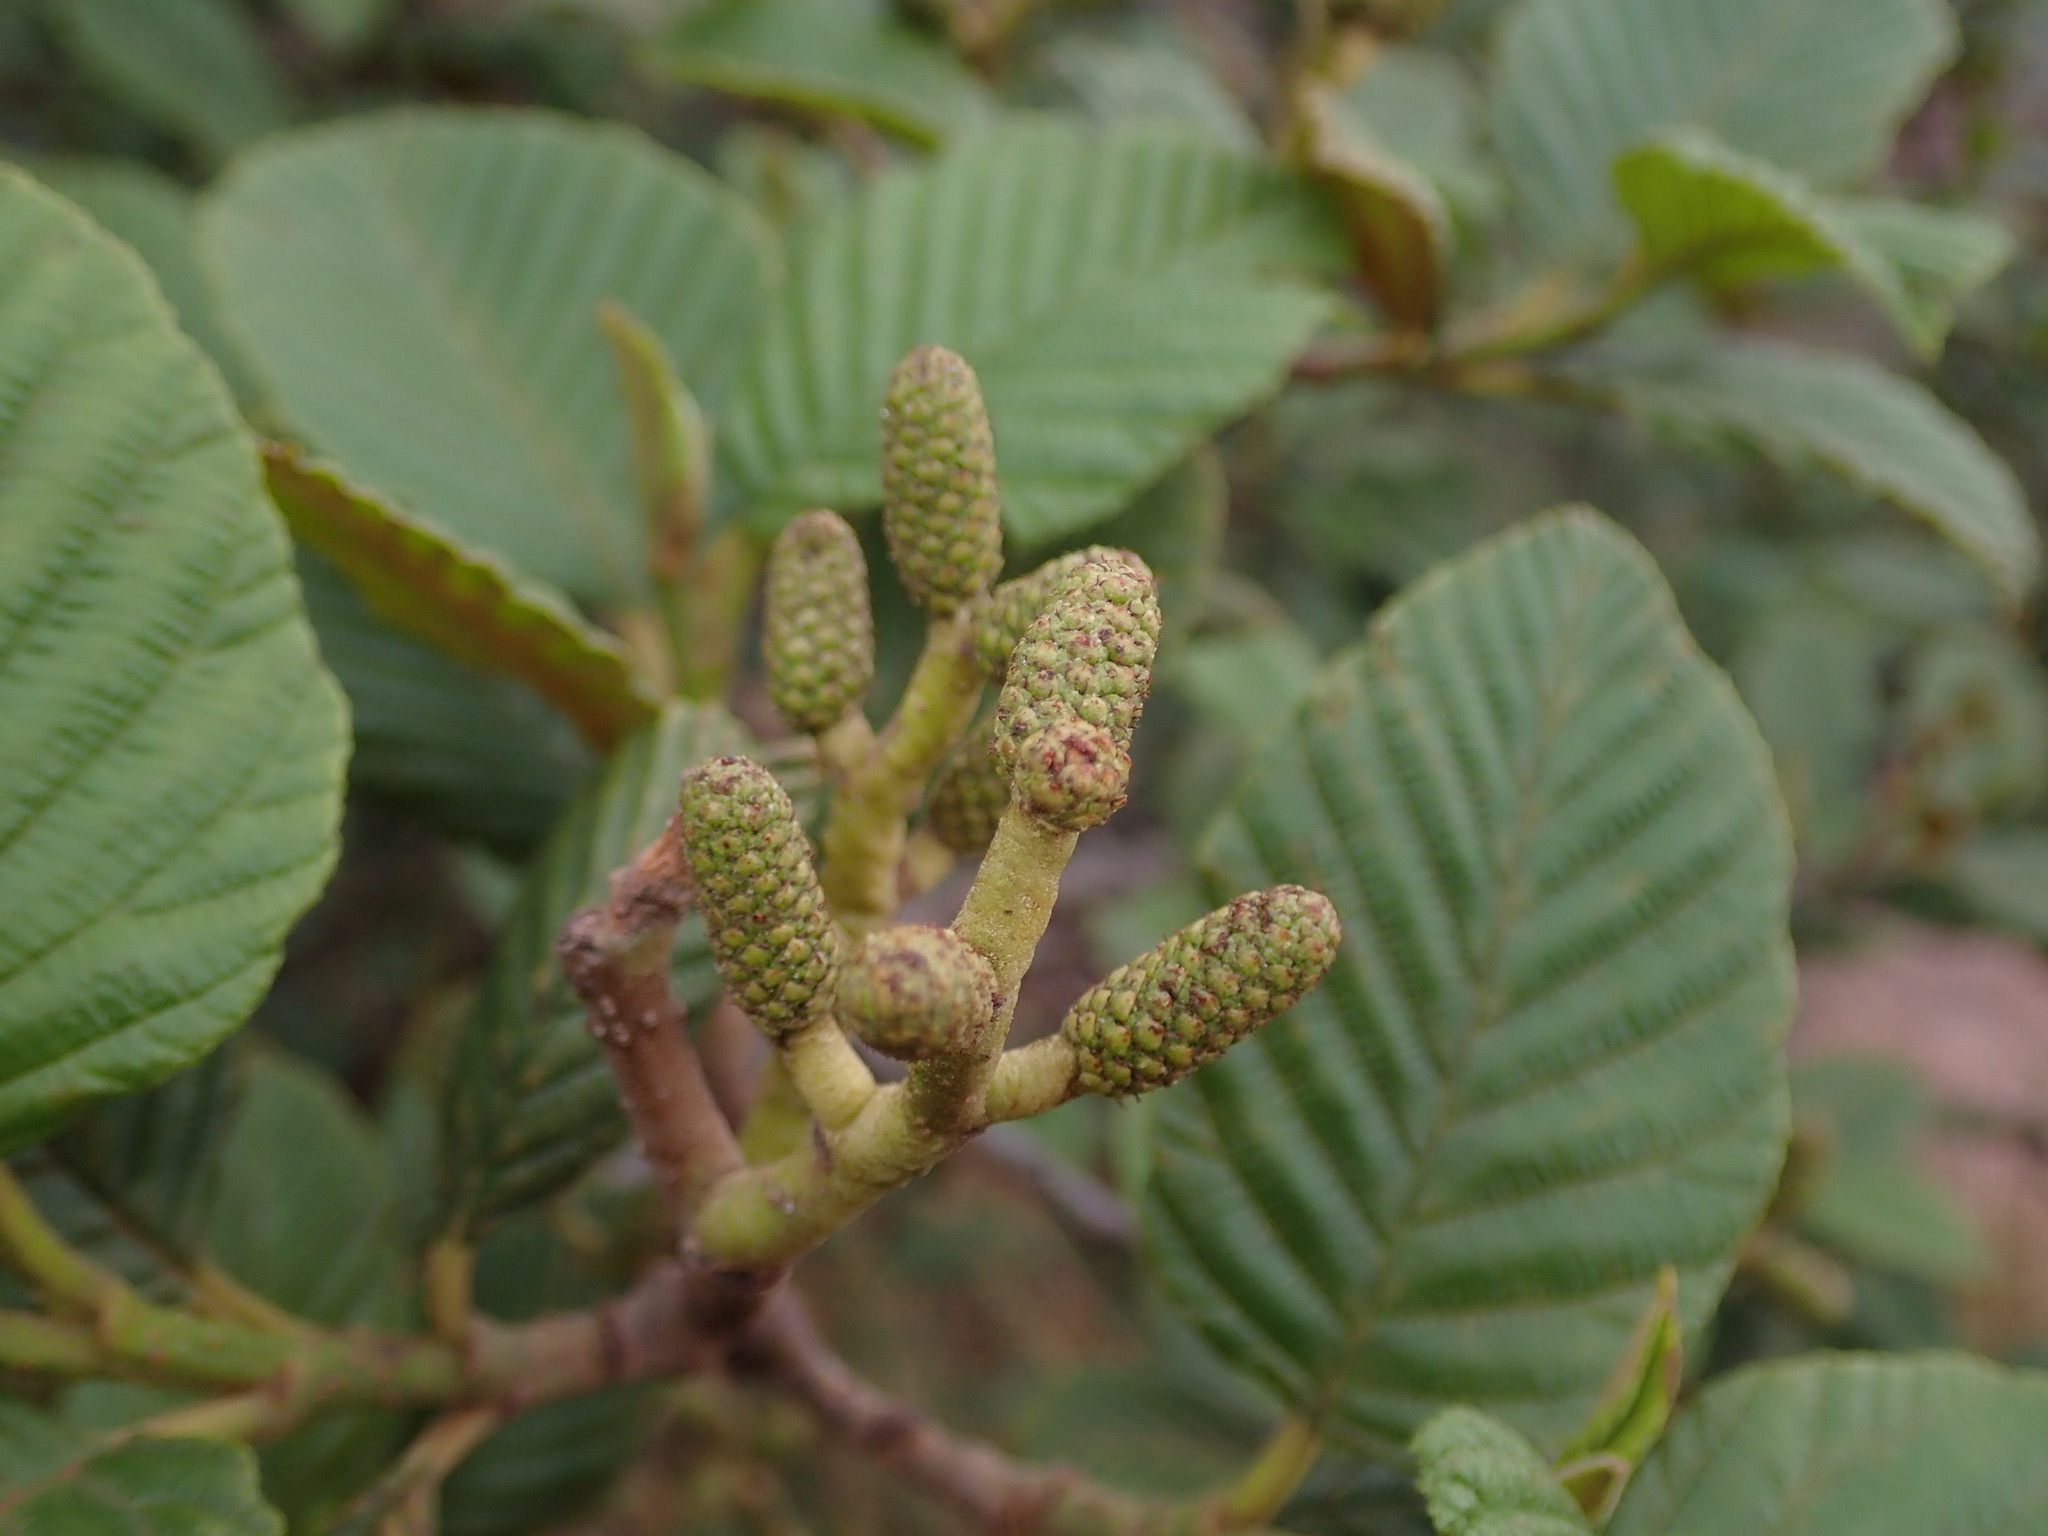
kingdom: Plantae
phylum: Tracheophyta
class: Magnoliopsida
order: Fagales
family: Betulaceae
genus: Alnus
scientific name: Alnus acuminata
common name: Alder
